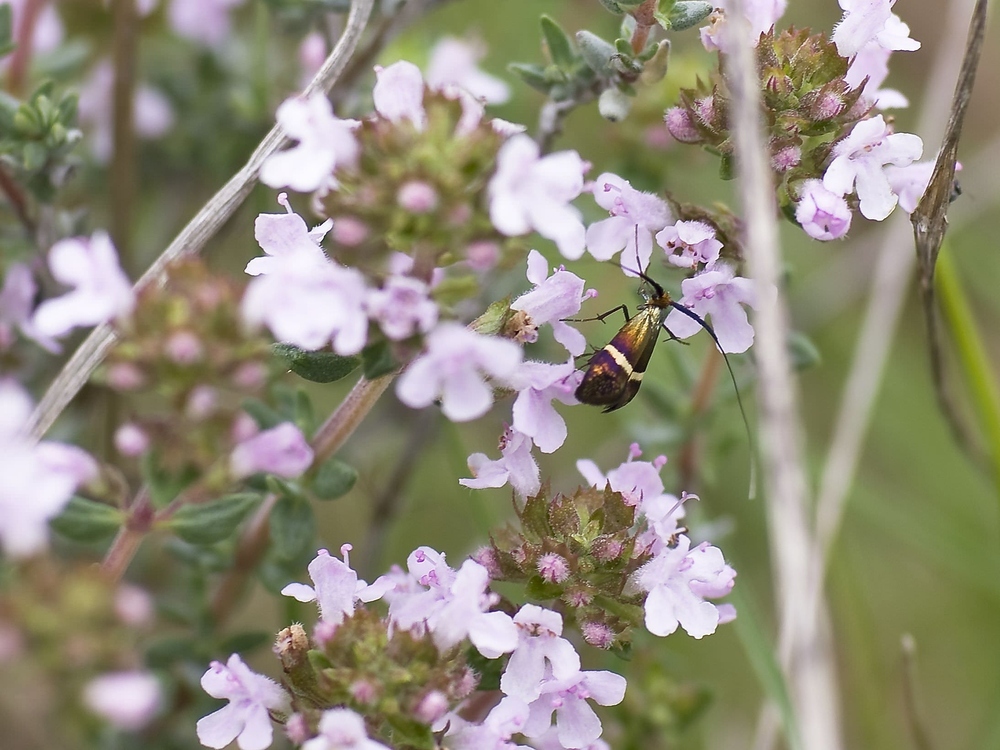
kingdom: Animalia
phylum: Arthropoda
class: Insecta
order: Lepidoptera
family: Adelidae
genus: Adela
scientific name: Adela australis
